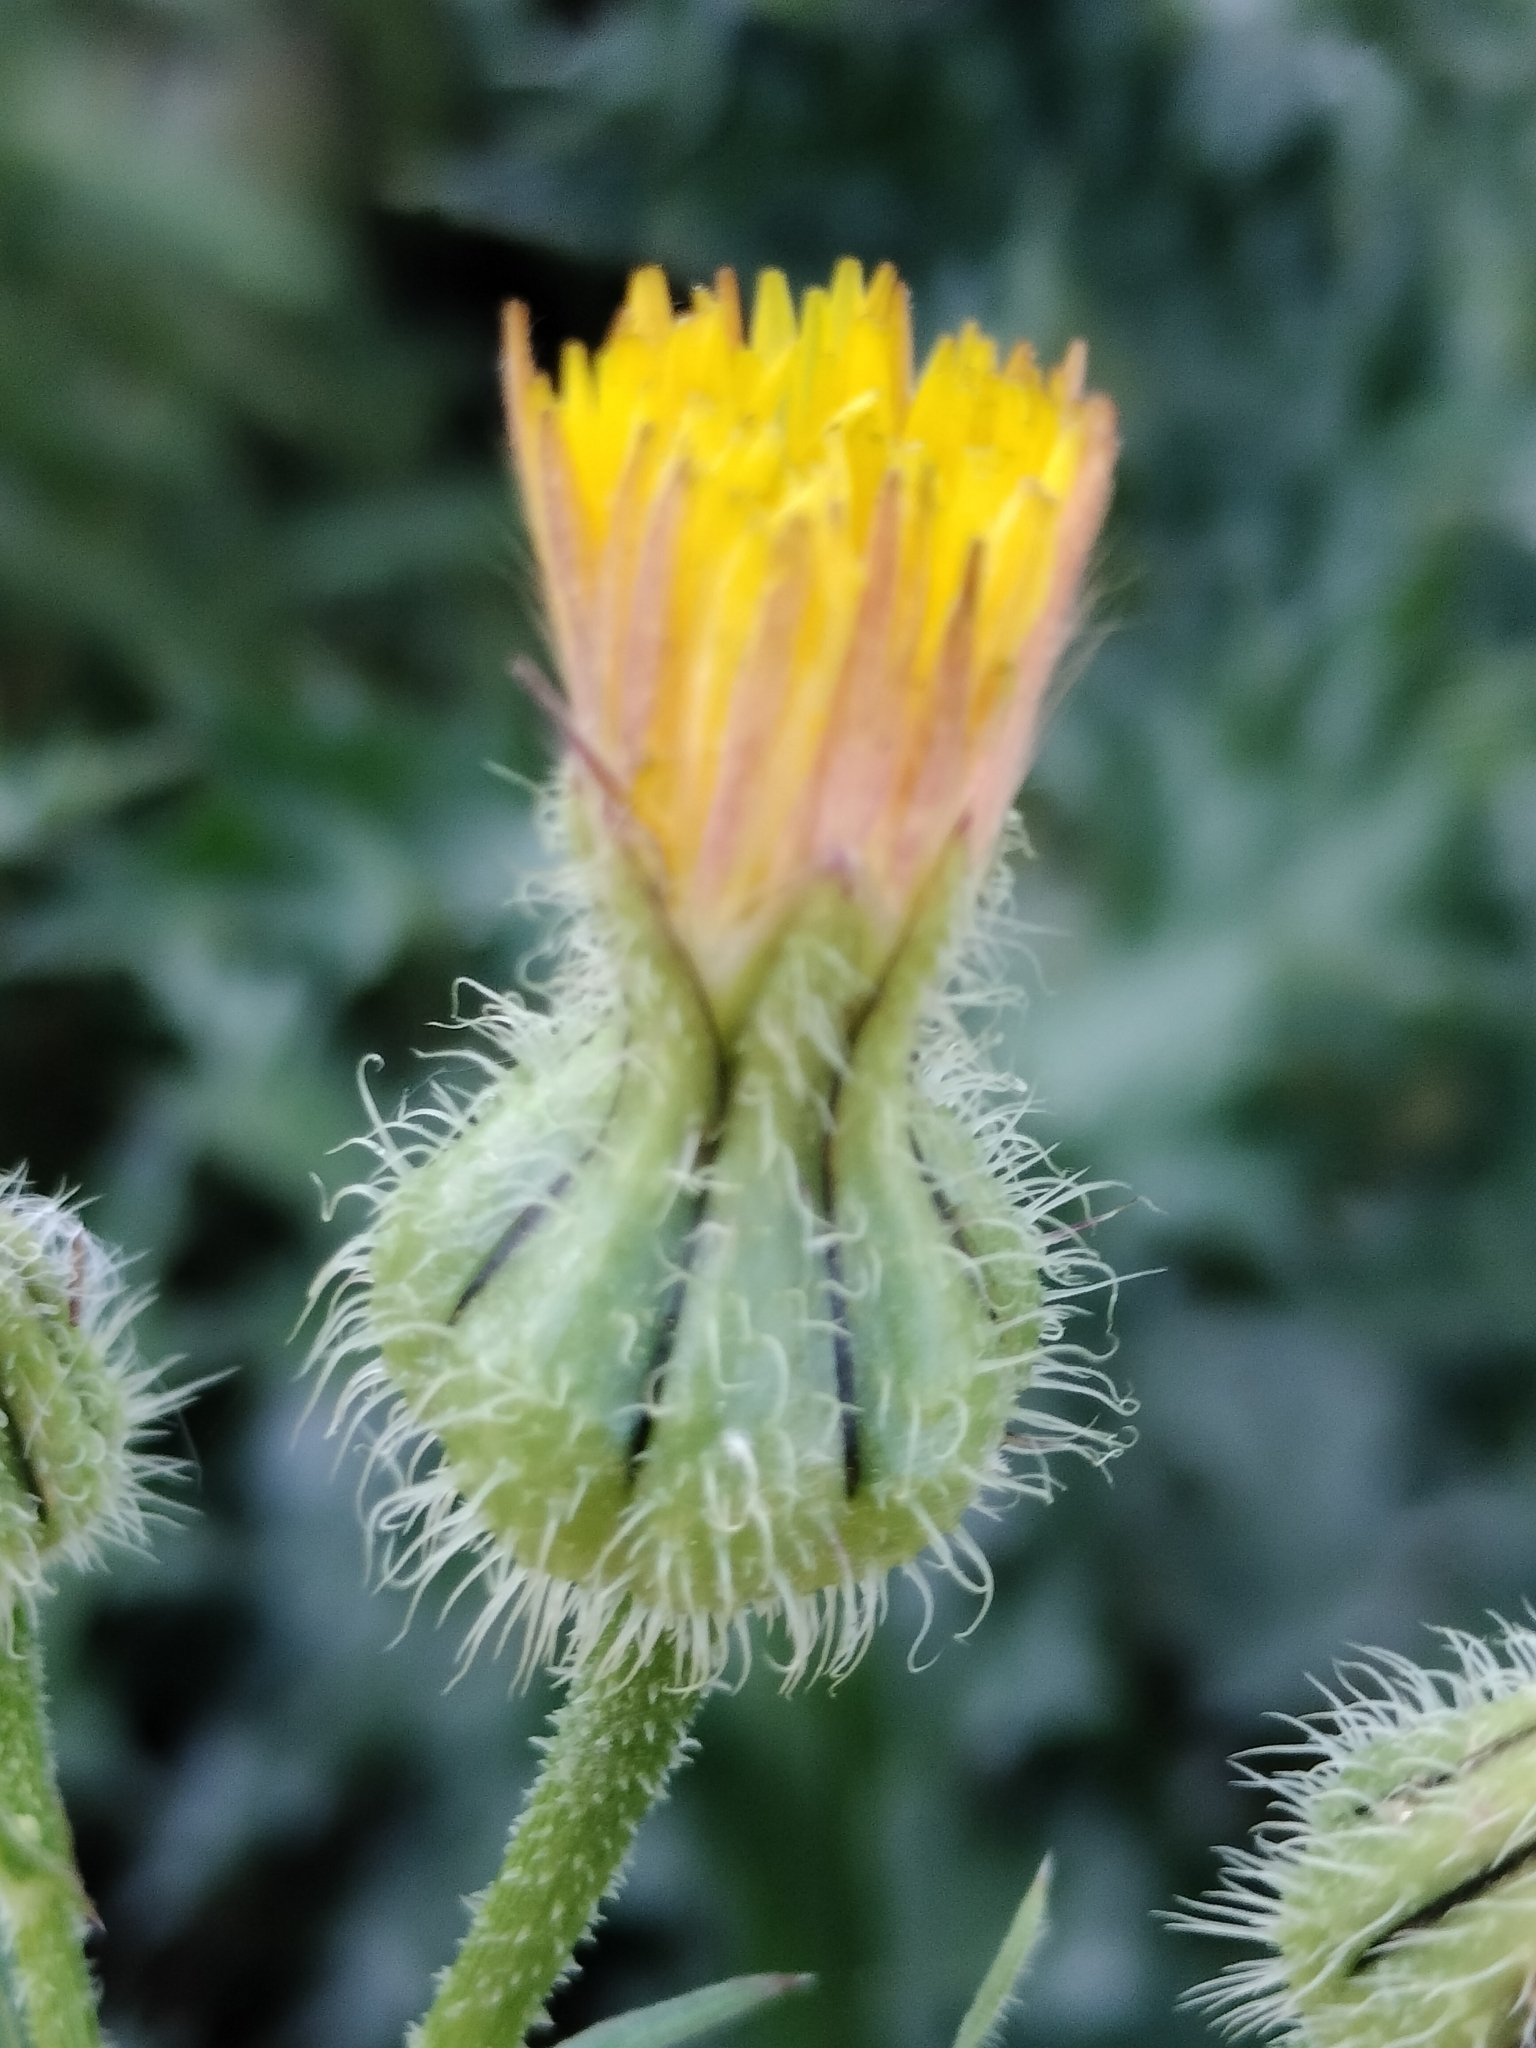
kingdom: Plantae
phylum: Tracheophyta
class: Magnoliopsida
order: Asterales
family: Asteraceae
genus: Urospermum
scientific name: Urospermum picroides
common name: False hawkbit
